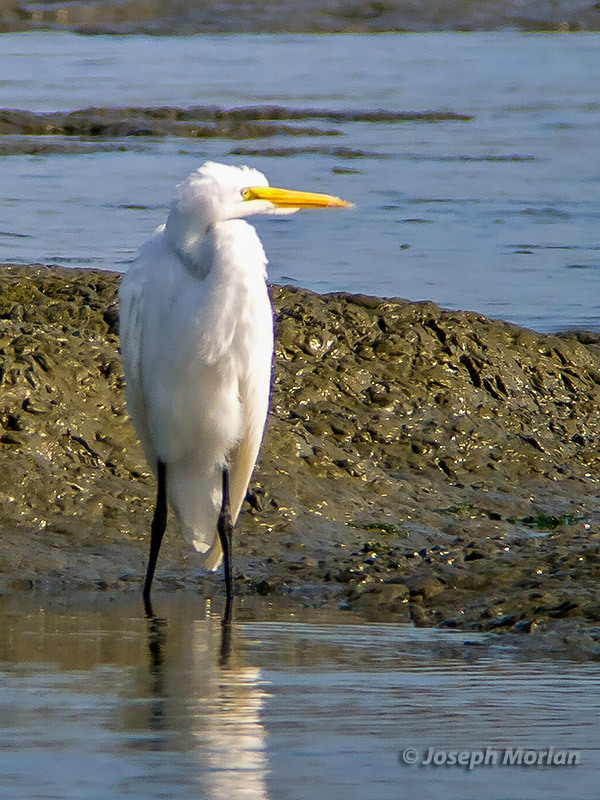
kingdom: Animalia
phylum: Chordata
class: Aves
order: Pelecaniformes
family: Ardeidae
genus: Ardea
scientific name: Ardea alba
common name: Great egret
